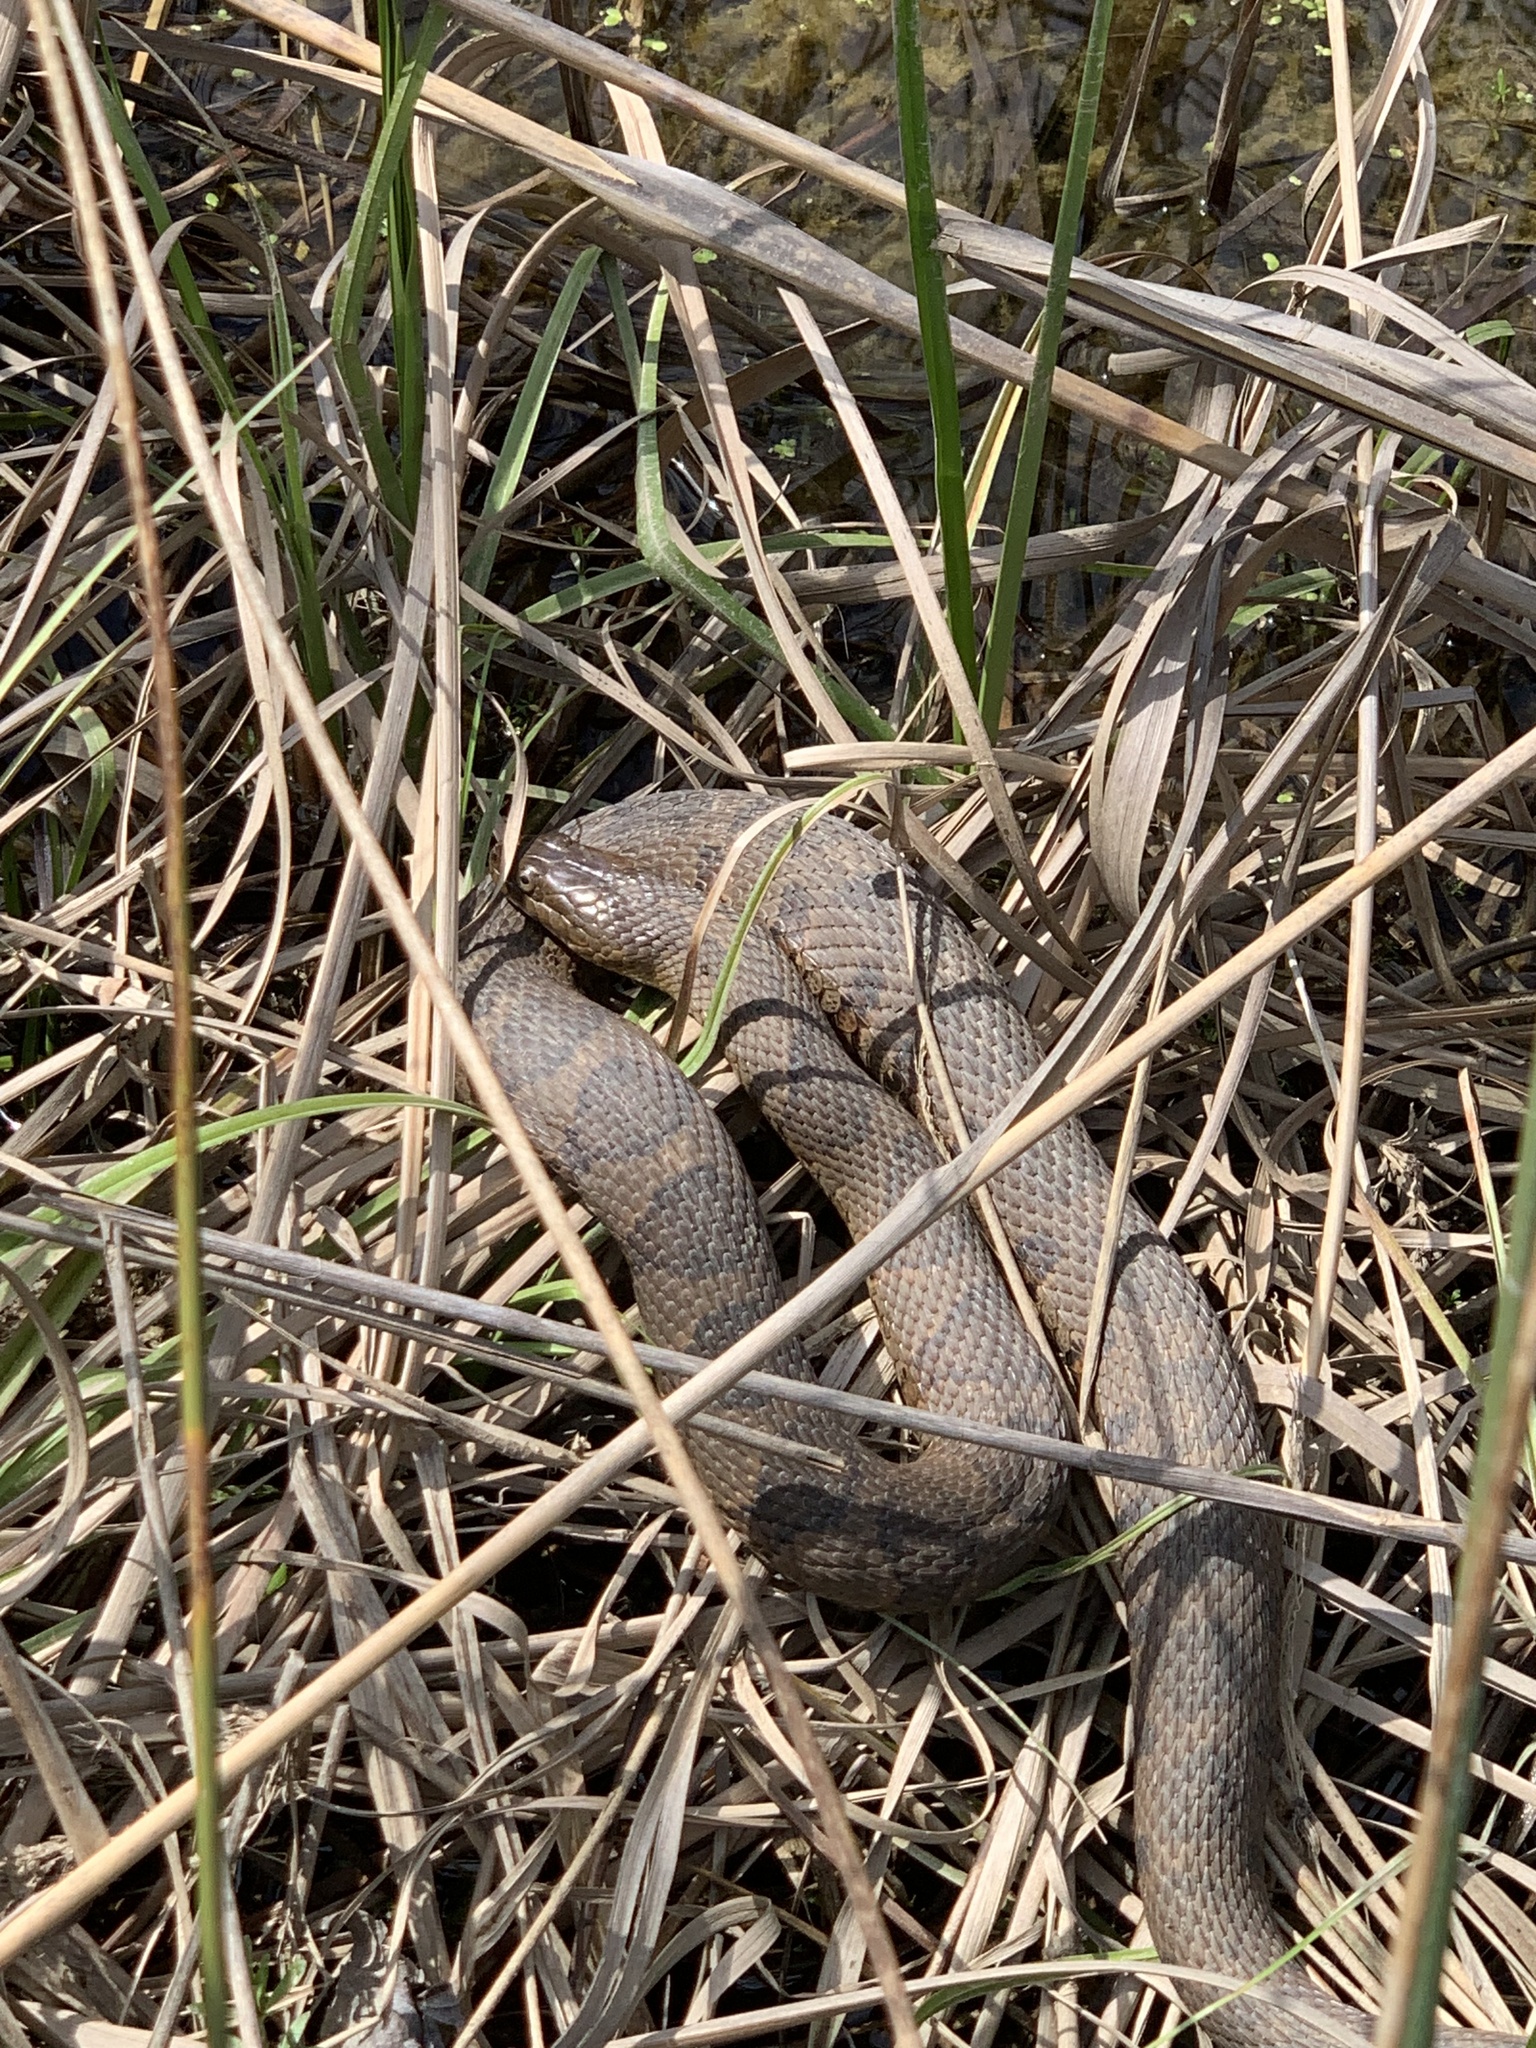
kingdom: Animalia
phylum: Chordata
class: Squamata
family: Colubridae
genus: Nerodia
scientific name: Nerodia sipedon
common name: Northern water snake
